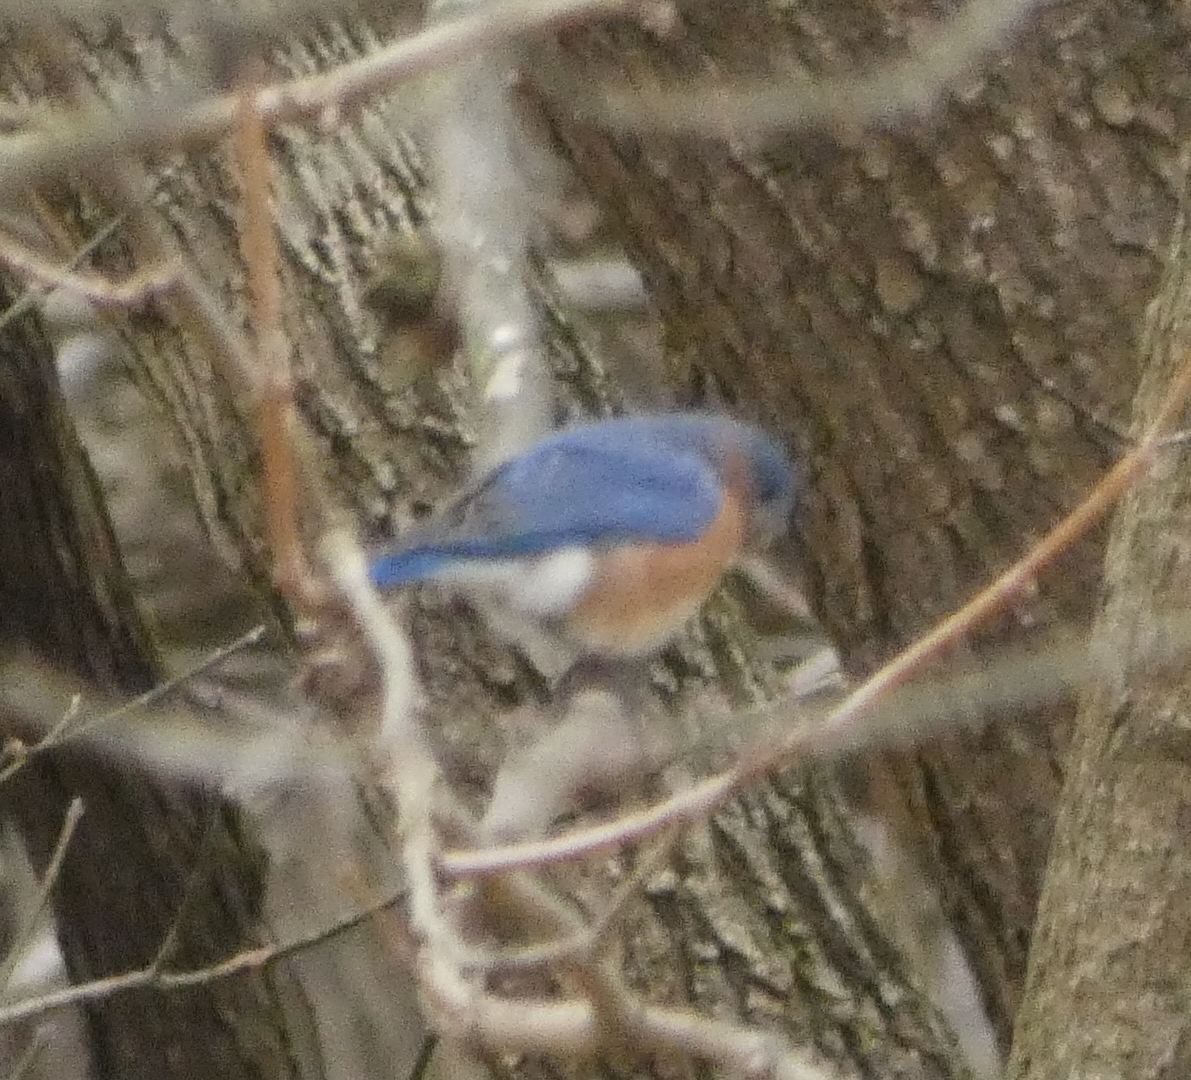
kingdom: Animalia
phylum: Chordata
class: Aves
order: Passeriformes
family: Turdidae
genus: Sialia
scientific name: Sialia sialis
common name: Eastern bluebird
